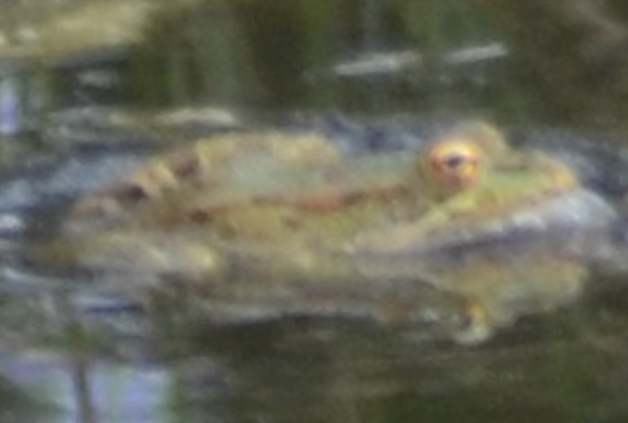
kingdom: Animalia
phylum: Chordata
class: Amphibia
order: Anura
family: Ranidae
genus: Pelophylax
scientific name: Pelophylax perezi
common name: Perez's frog
